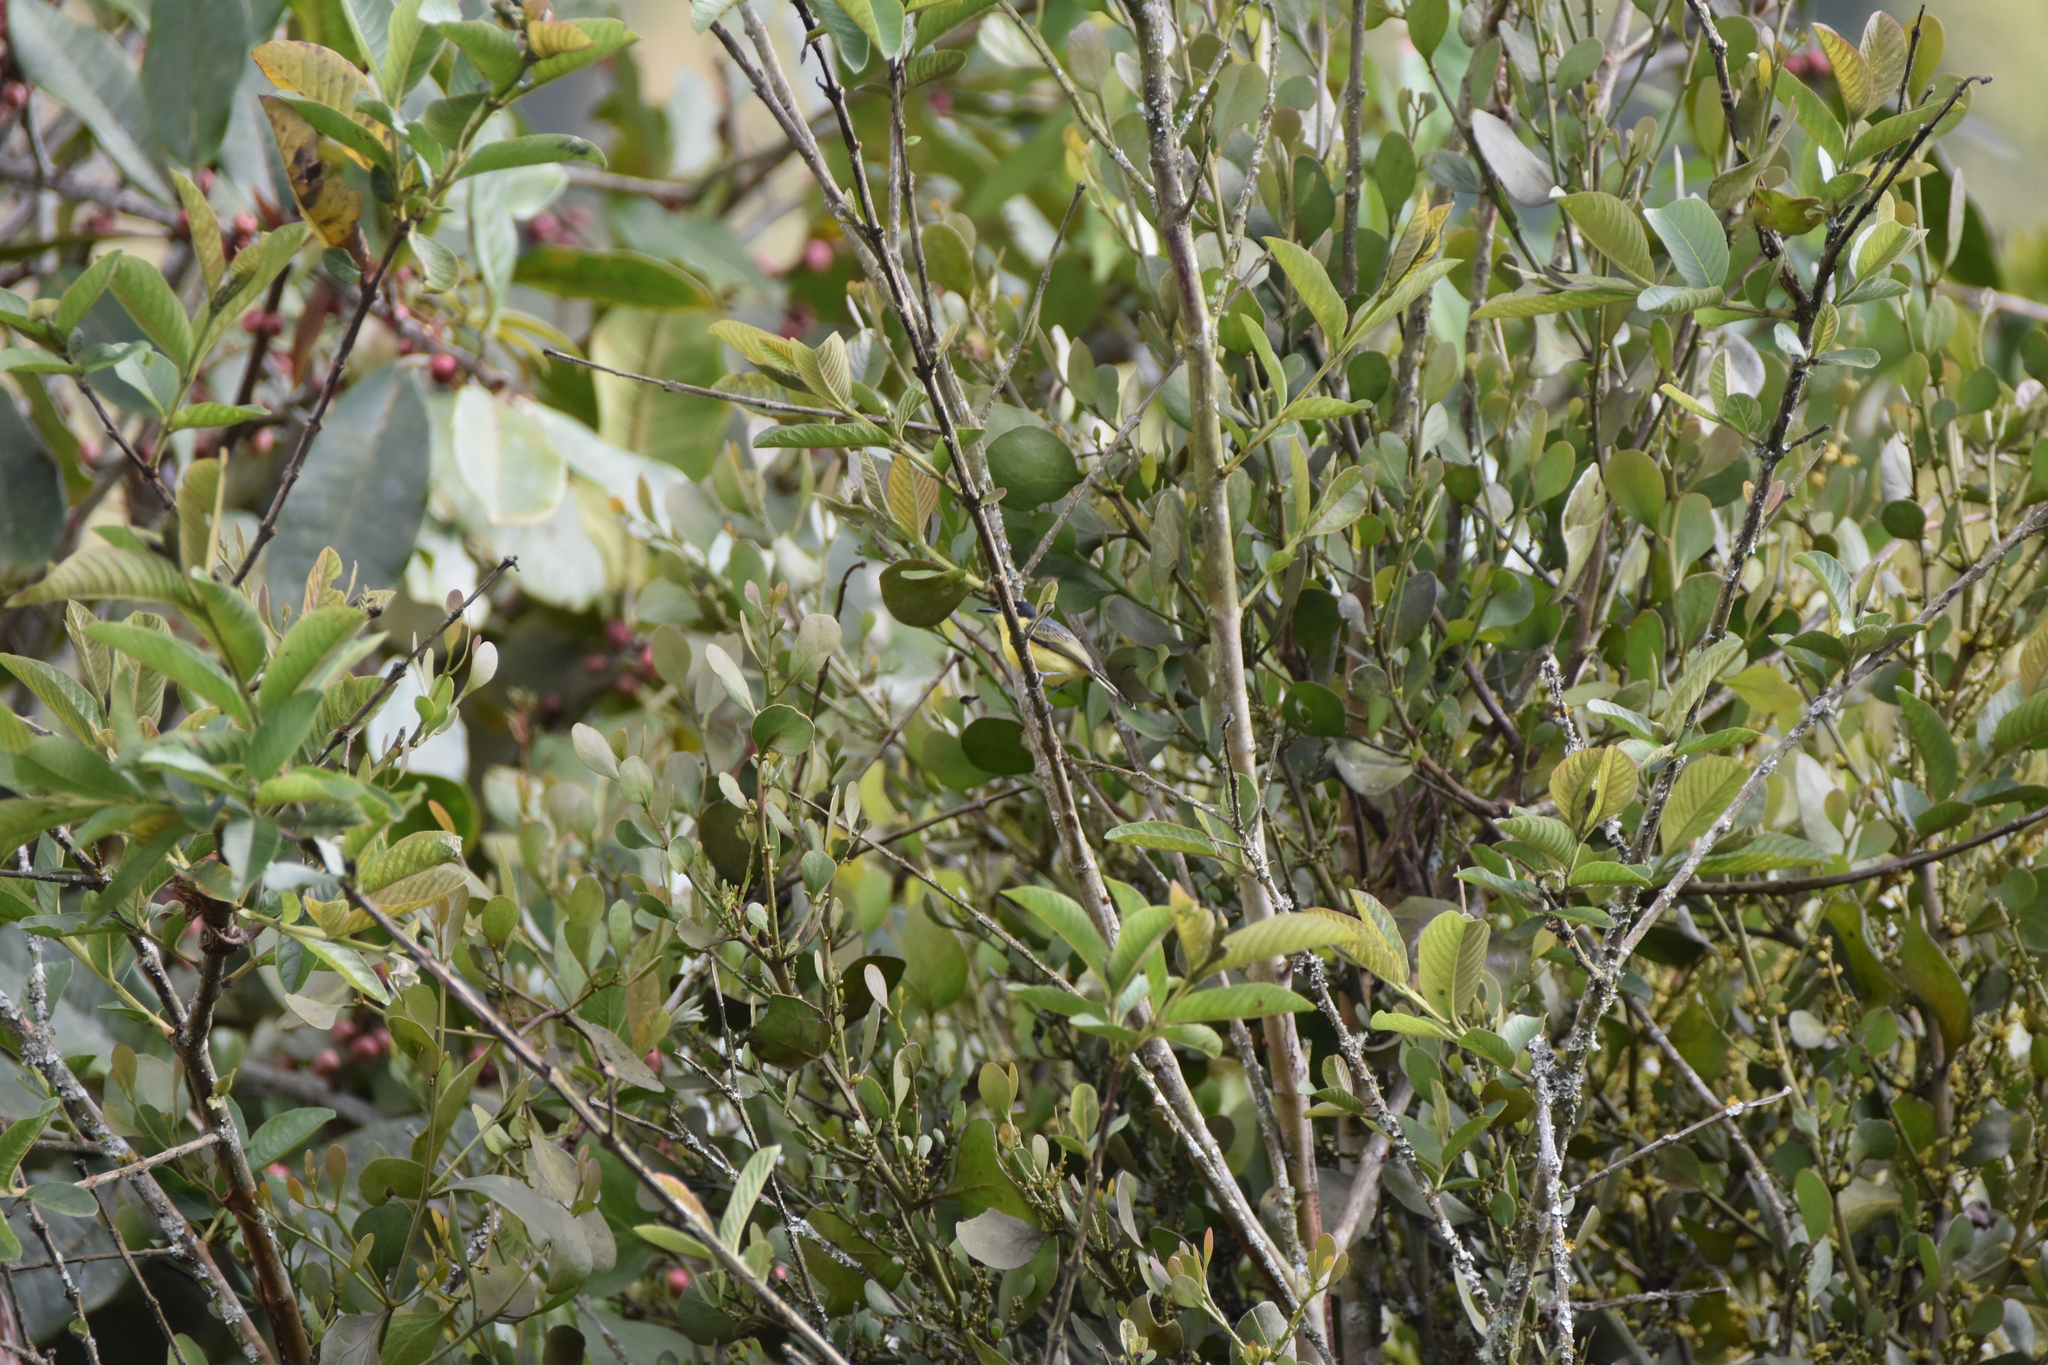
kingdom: Animalia
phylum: Chordata
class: Aves
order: Passeriformes
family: Tyrannidae
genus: Todirostrum
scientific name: Todirostrum cinereum
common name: Common tody-flycatcher
